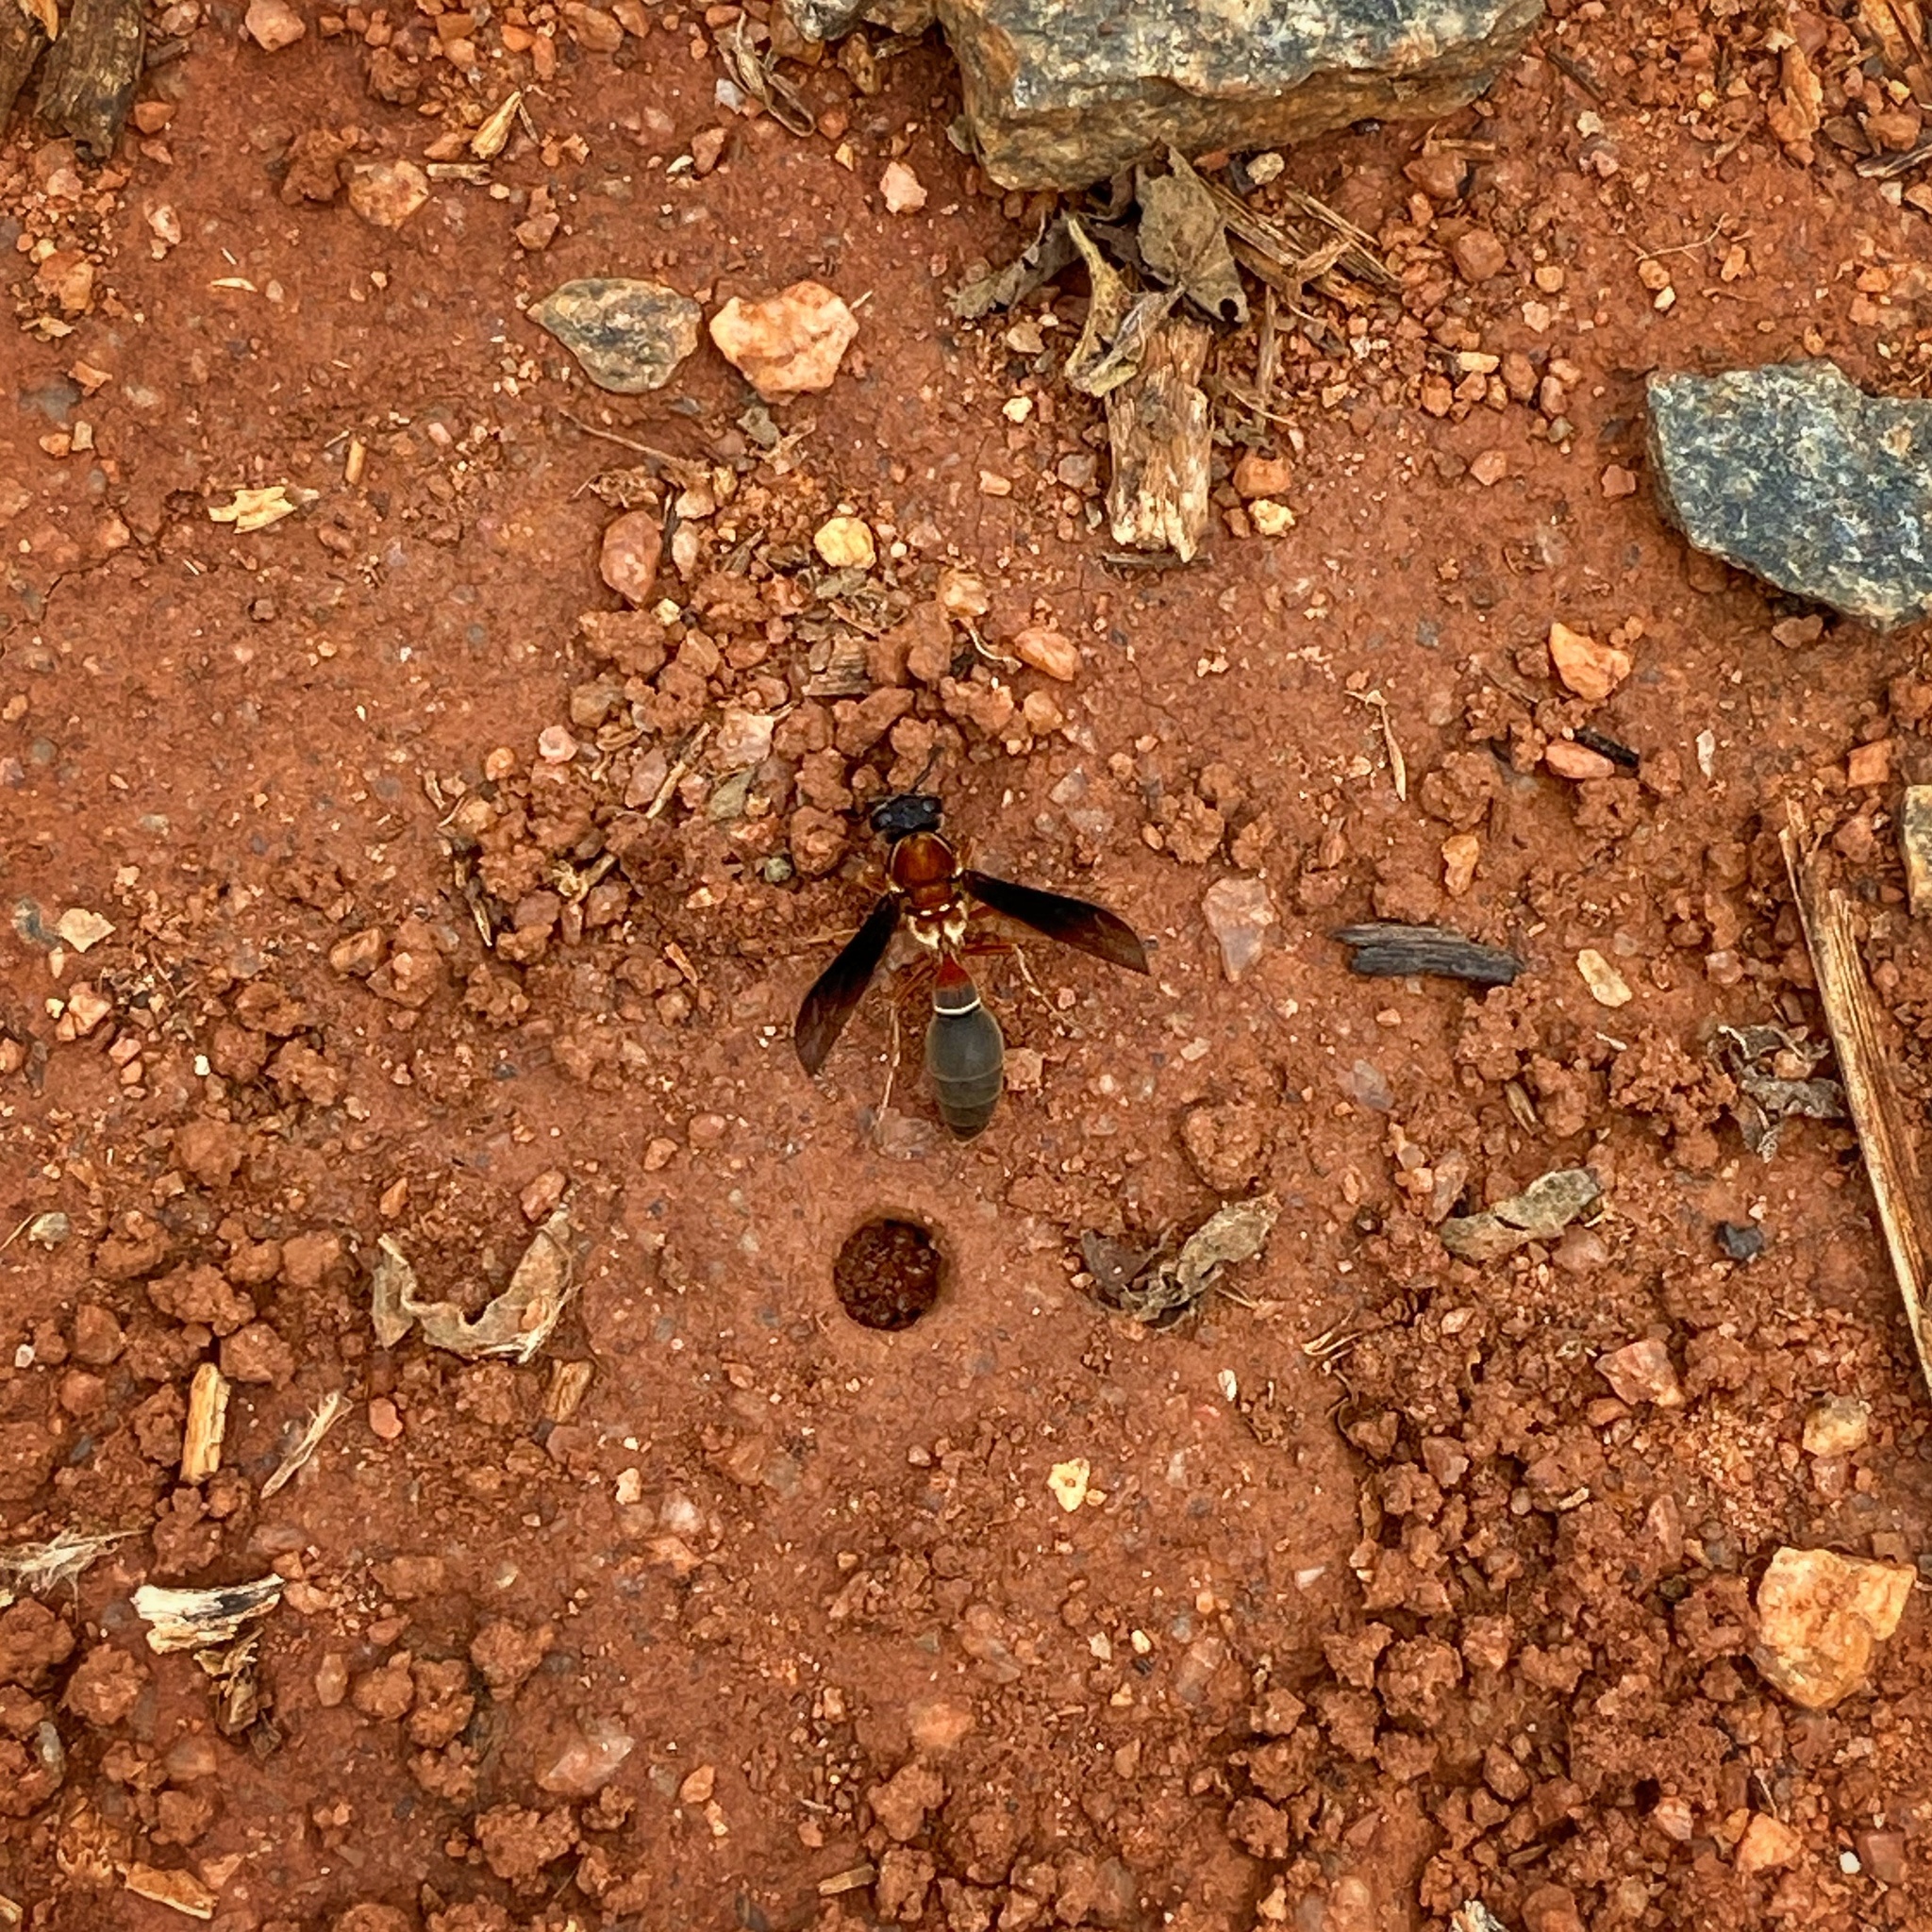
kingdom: Animalia
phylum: Arthropoda
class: Insecta
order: Hymenoptera
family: Eumenidae
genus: Montezumia
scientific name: Montezumia nigriceps
